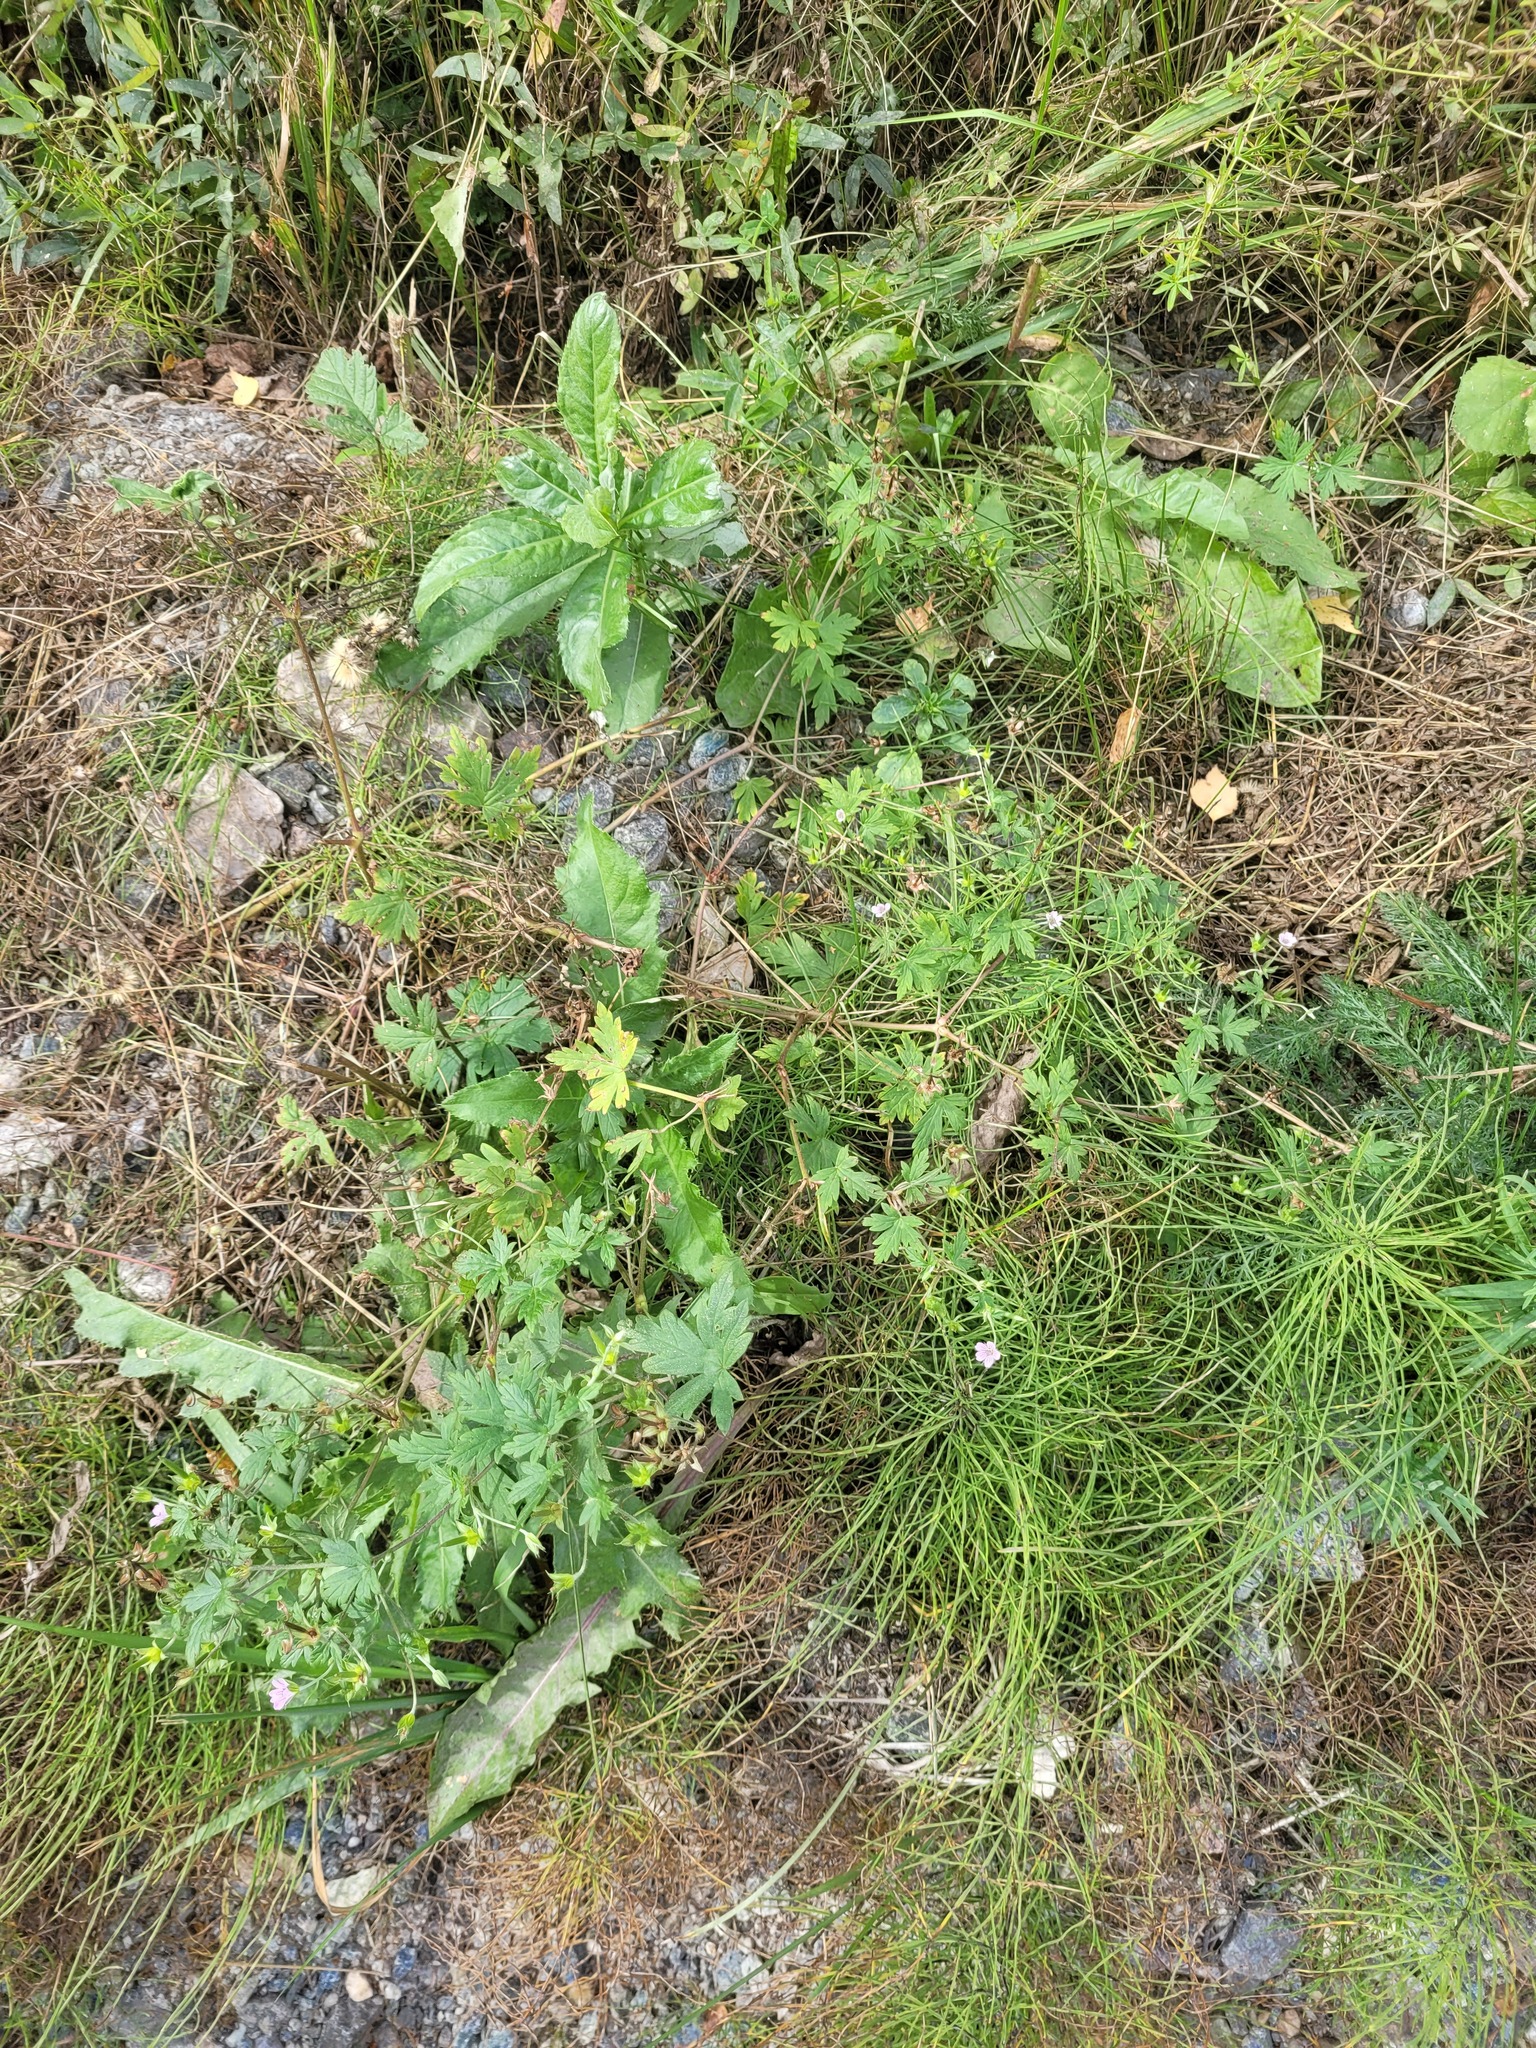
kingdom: Plantae
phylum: Tracheophyta
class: Magnoliopsida
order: Geraniales
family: Geraniaceae
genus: Geranium
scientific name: Geranium sibiricum
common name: Siberian crane's-bill
